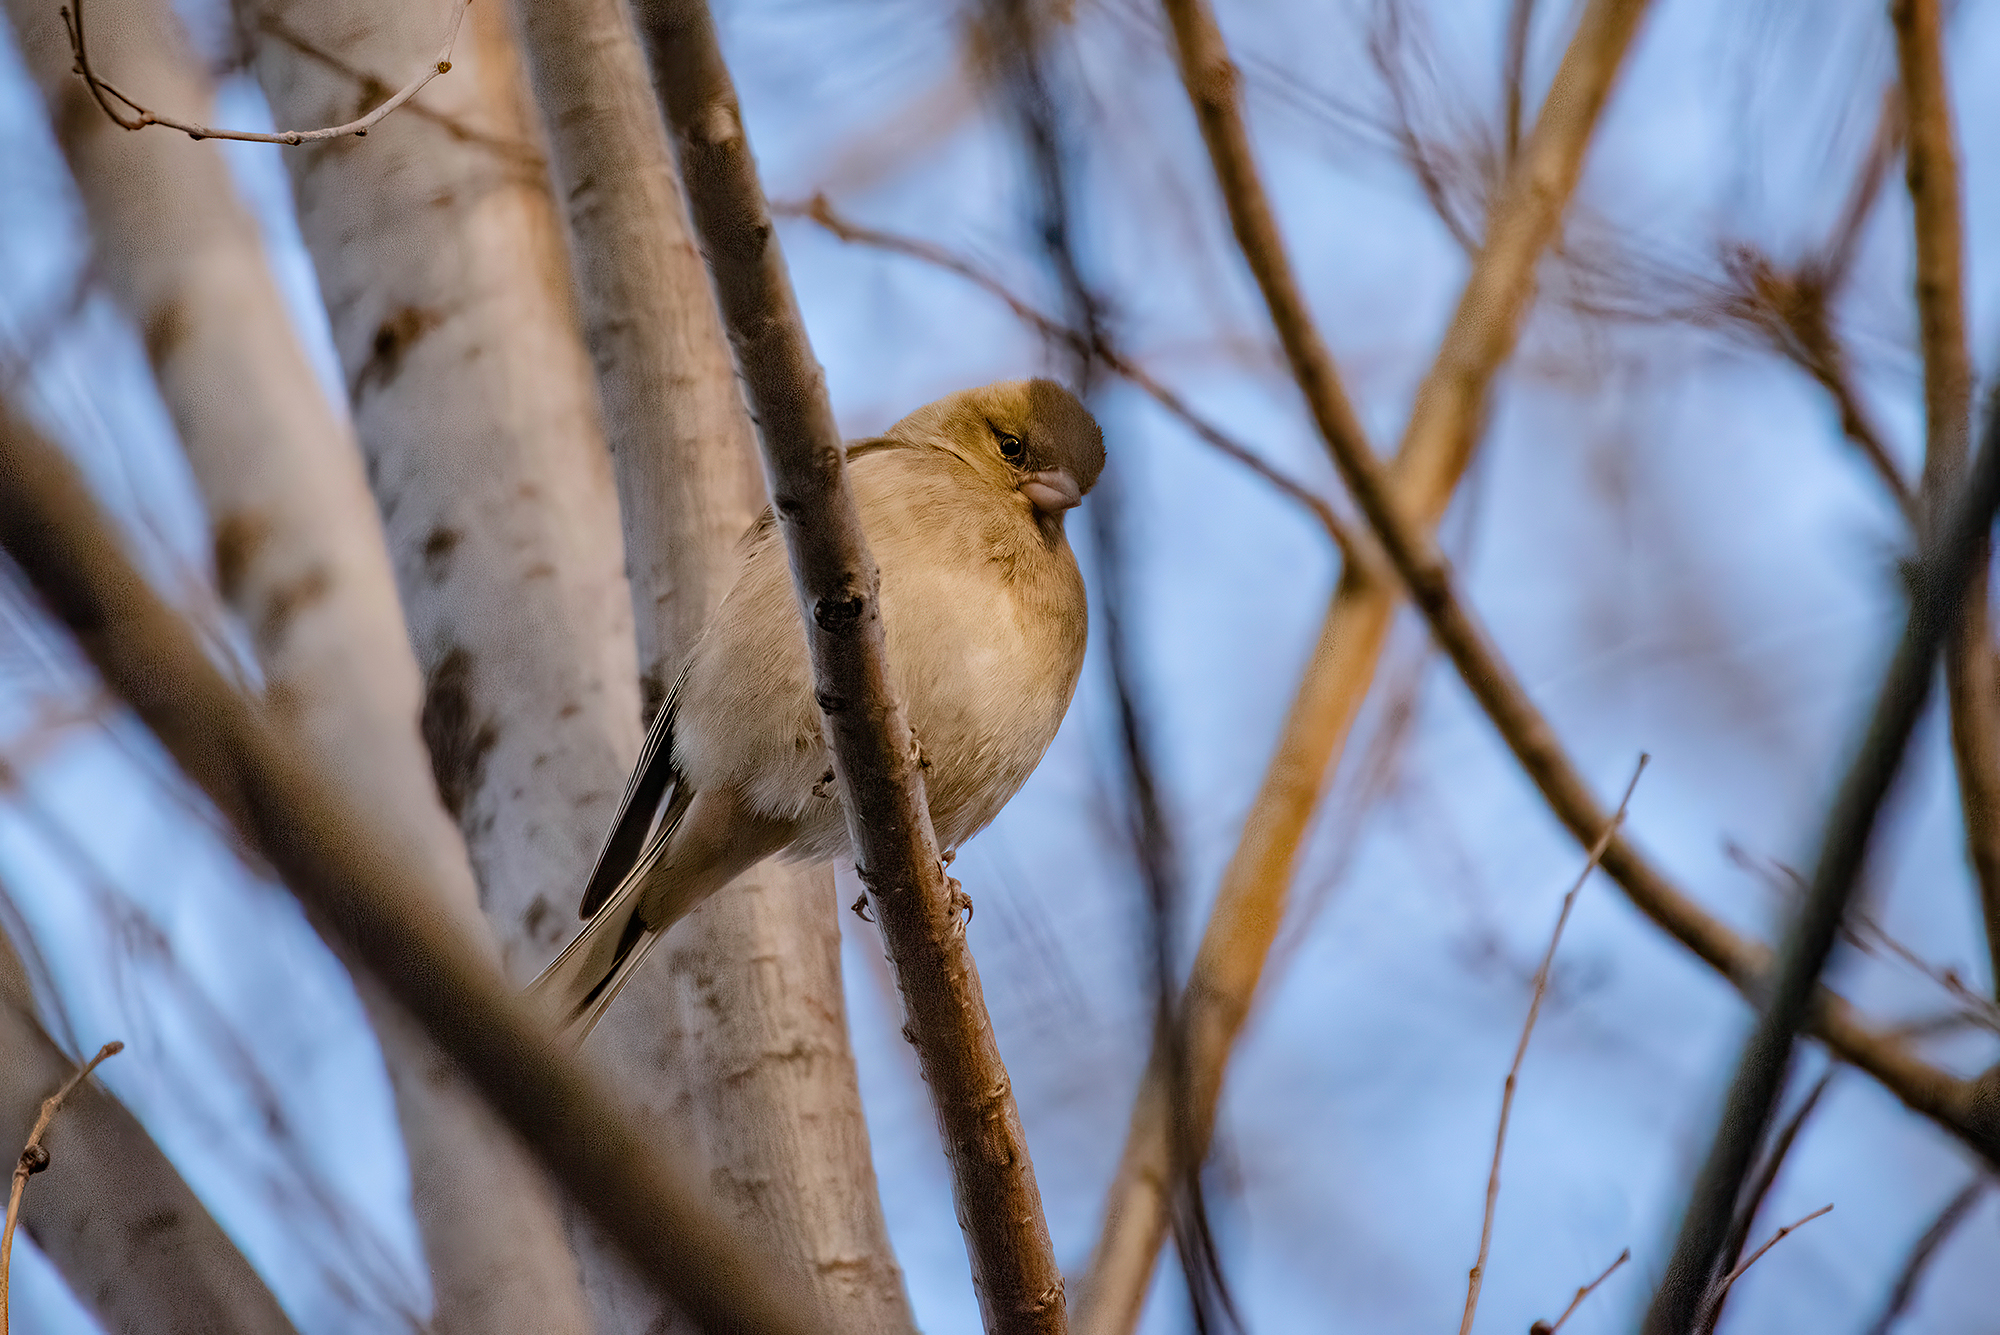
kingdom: Animalia
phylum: Chordata
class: Aves
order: Passeriformes
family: Fringillidae
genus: Fringilla
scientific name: Fringilla coelebs
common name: Common chaffinch
